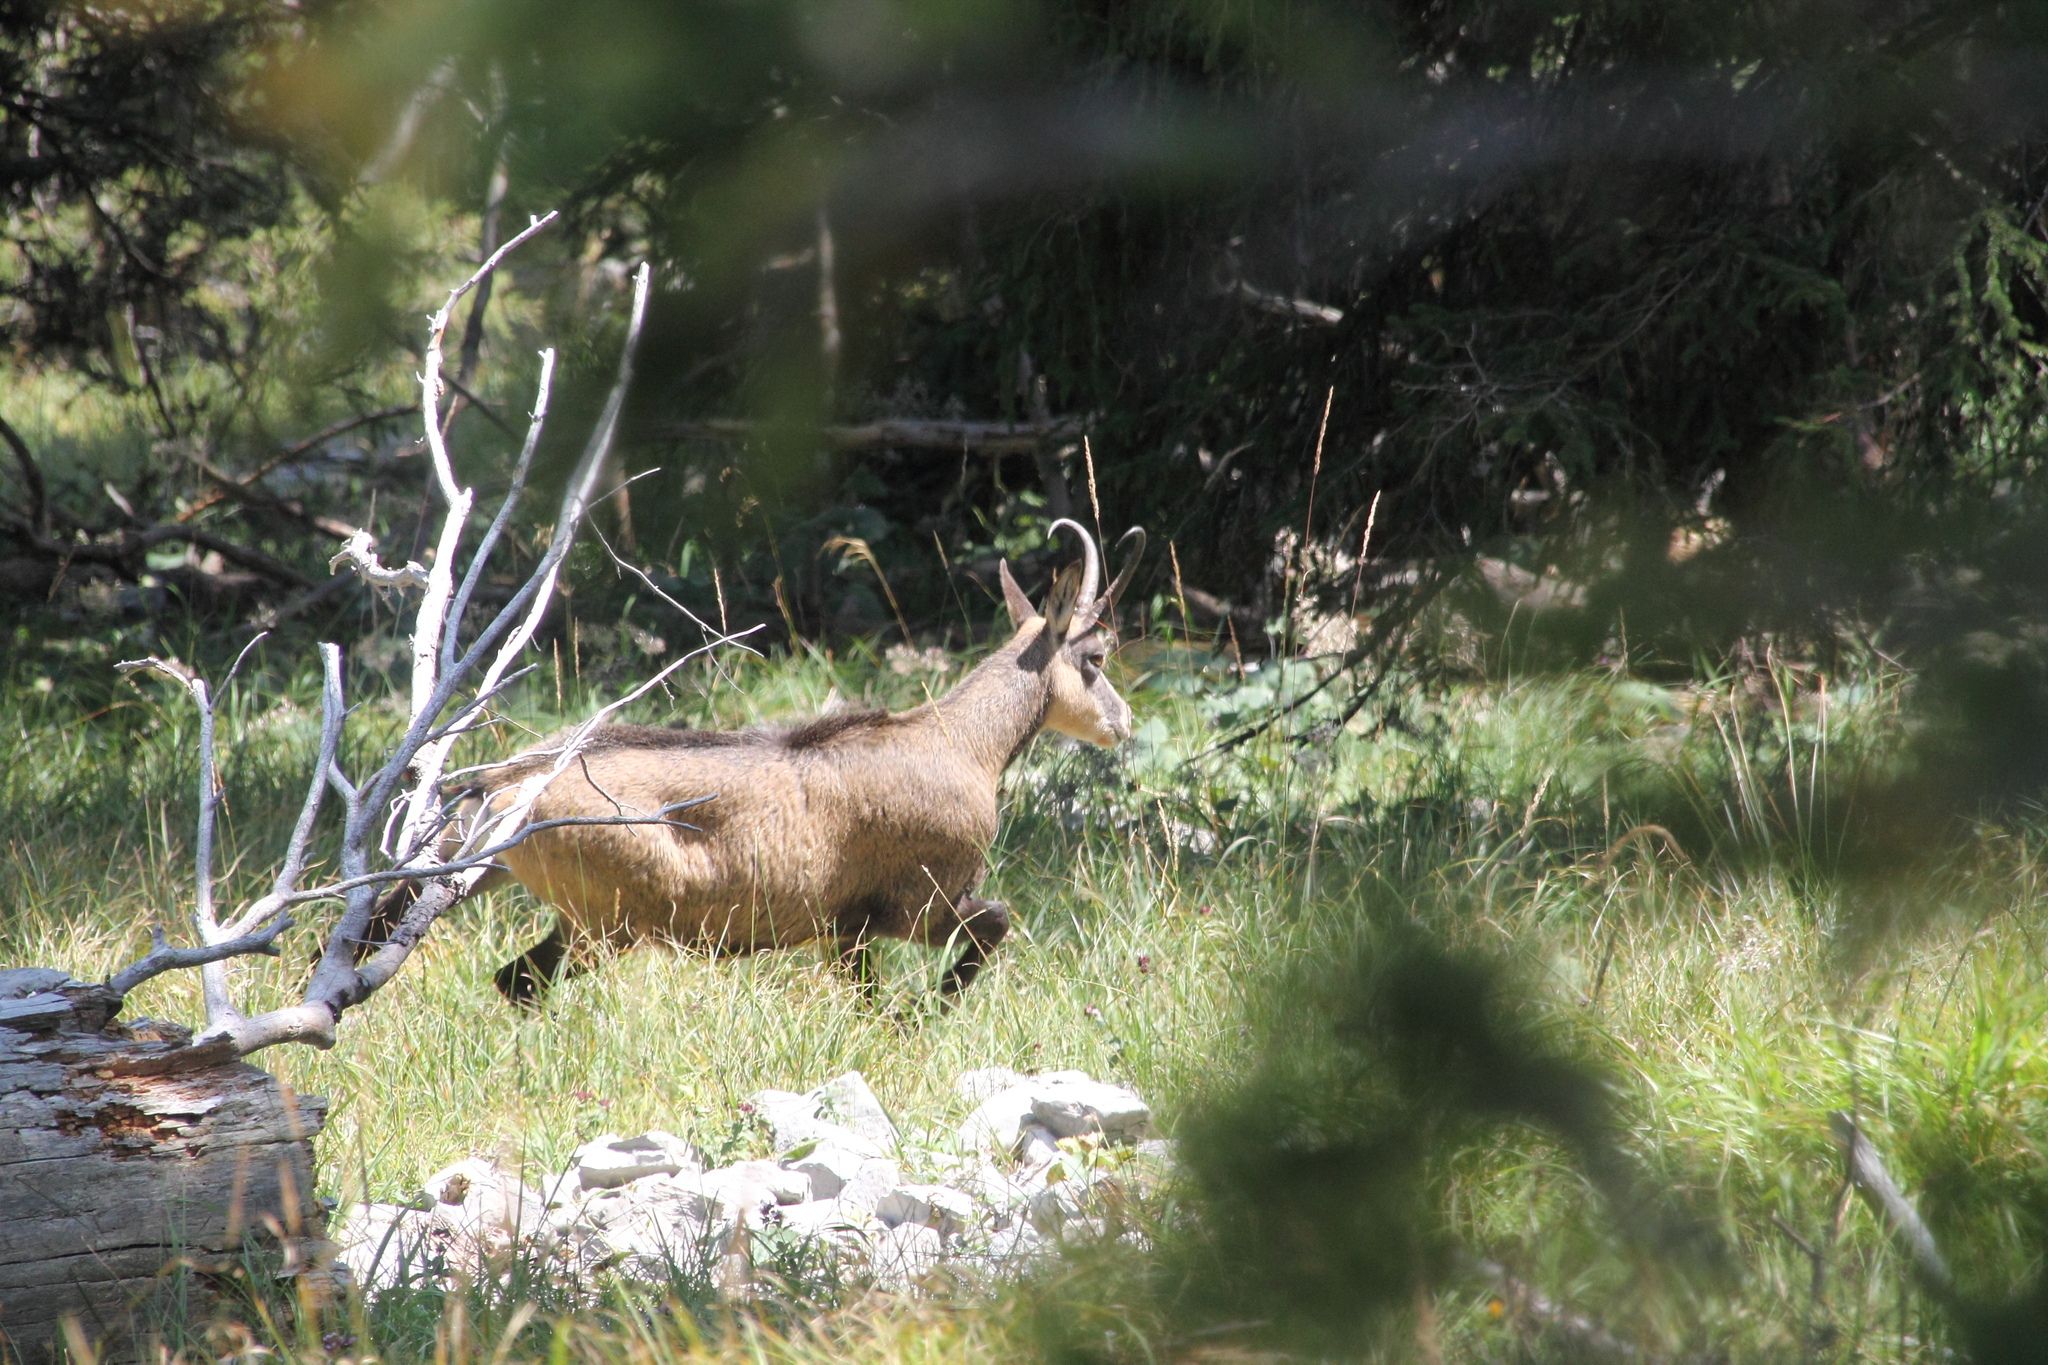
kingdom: Animalia
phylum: Chordata
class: Mammalia
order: Artiodactyla
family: Bovidae
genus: Rupicapra
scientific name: Rupicapra rupicapra
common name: Chamois
